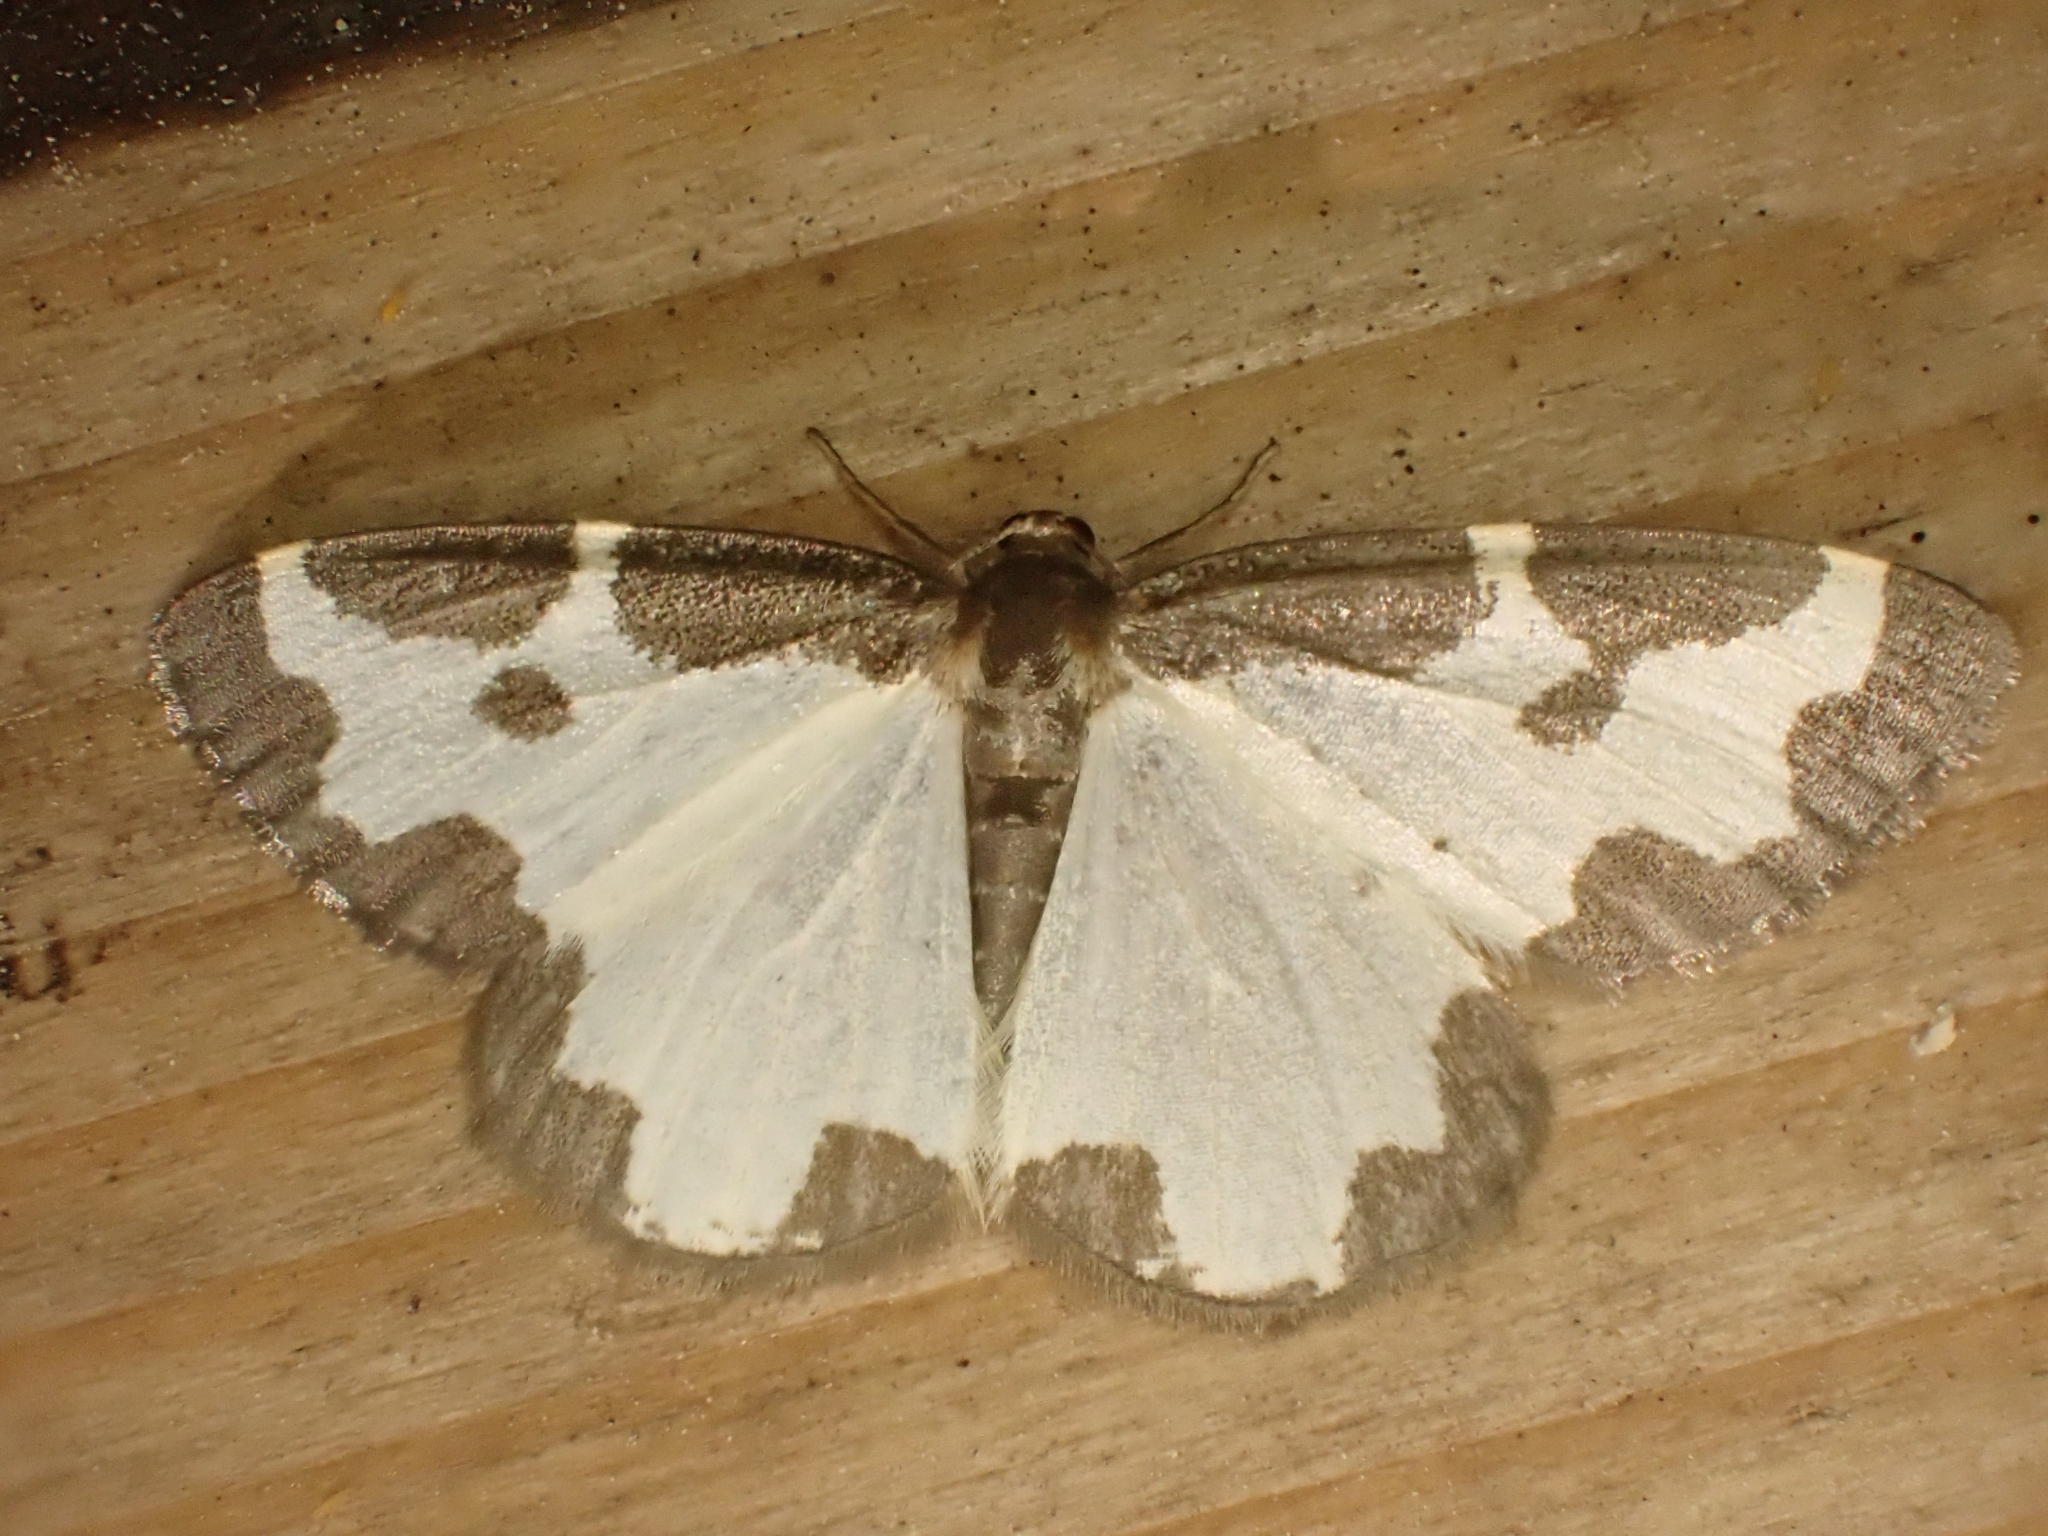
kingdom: Animalia
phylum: Arthropoda
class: Insecta
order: Lepidoptera
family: Geometridae
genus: Lomaspilis
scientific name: Lomaspilis marginata
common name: Clouded border
